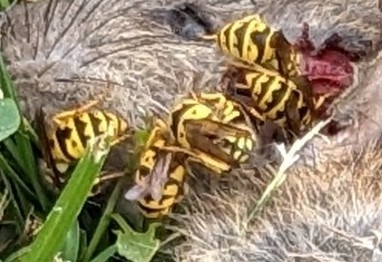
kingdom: Animalia
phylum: Arthropoda
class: Insecta
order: Hymenoptera
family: Vespidae
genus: Vespula
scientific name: Vespula germanica
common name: German wasp
